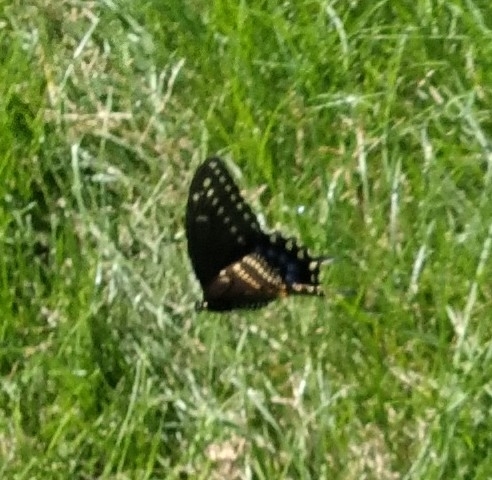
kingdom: Animalia
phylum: Arthropoda
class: Insecta
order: Lepidoptera
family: Papilionidae
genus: Papilio
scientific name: Papilio polyxenes
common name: Black swallowtail
